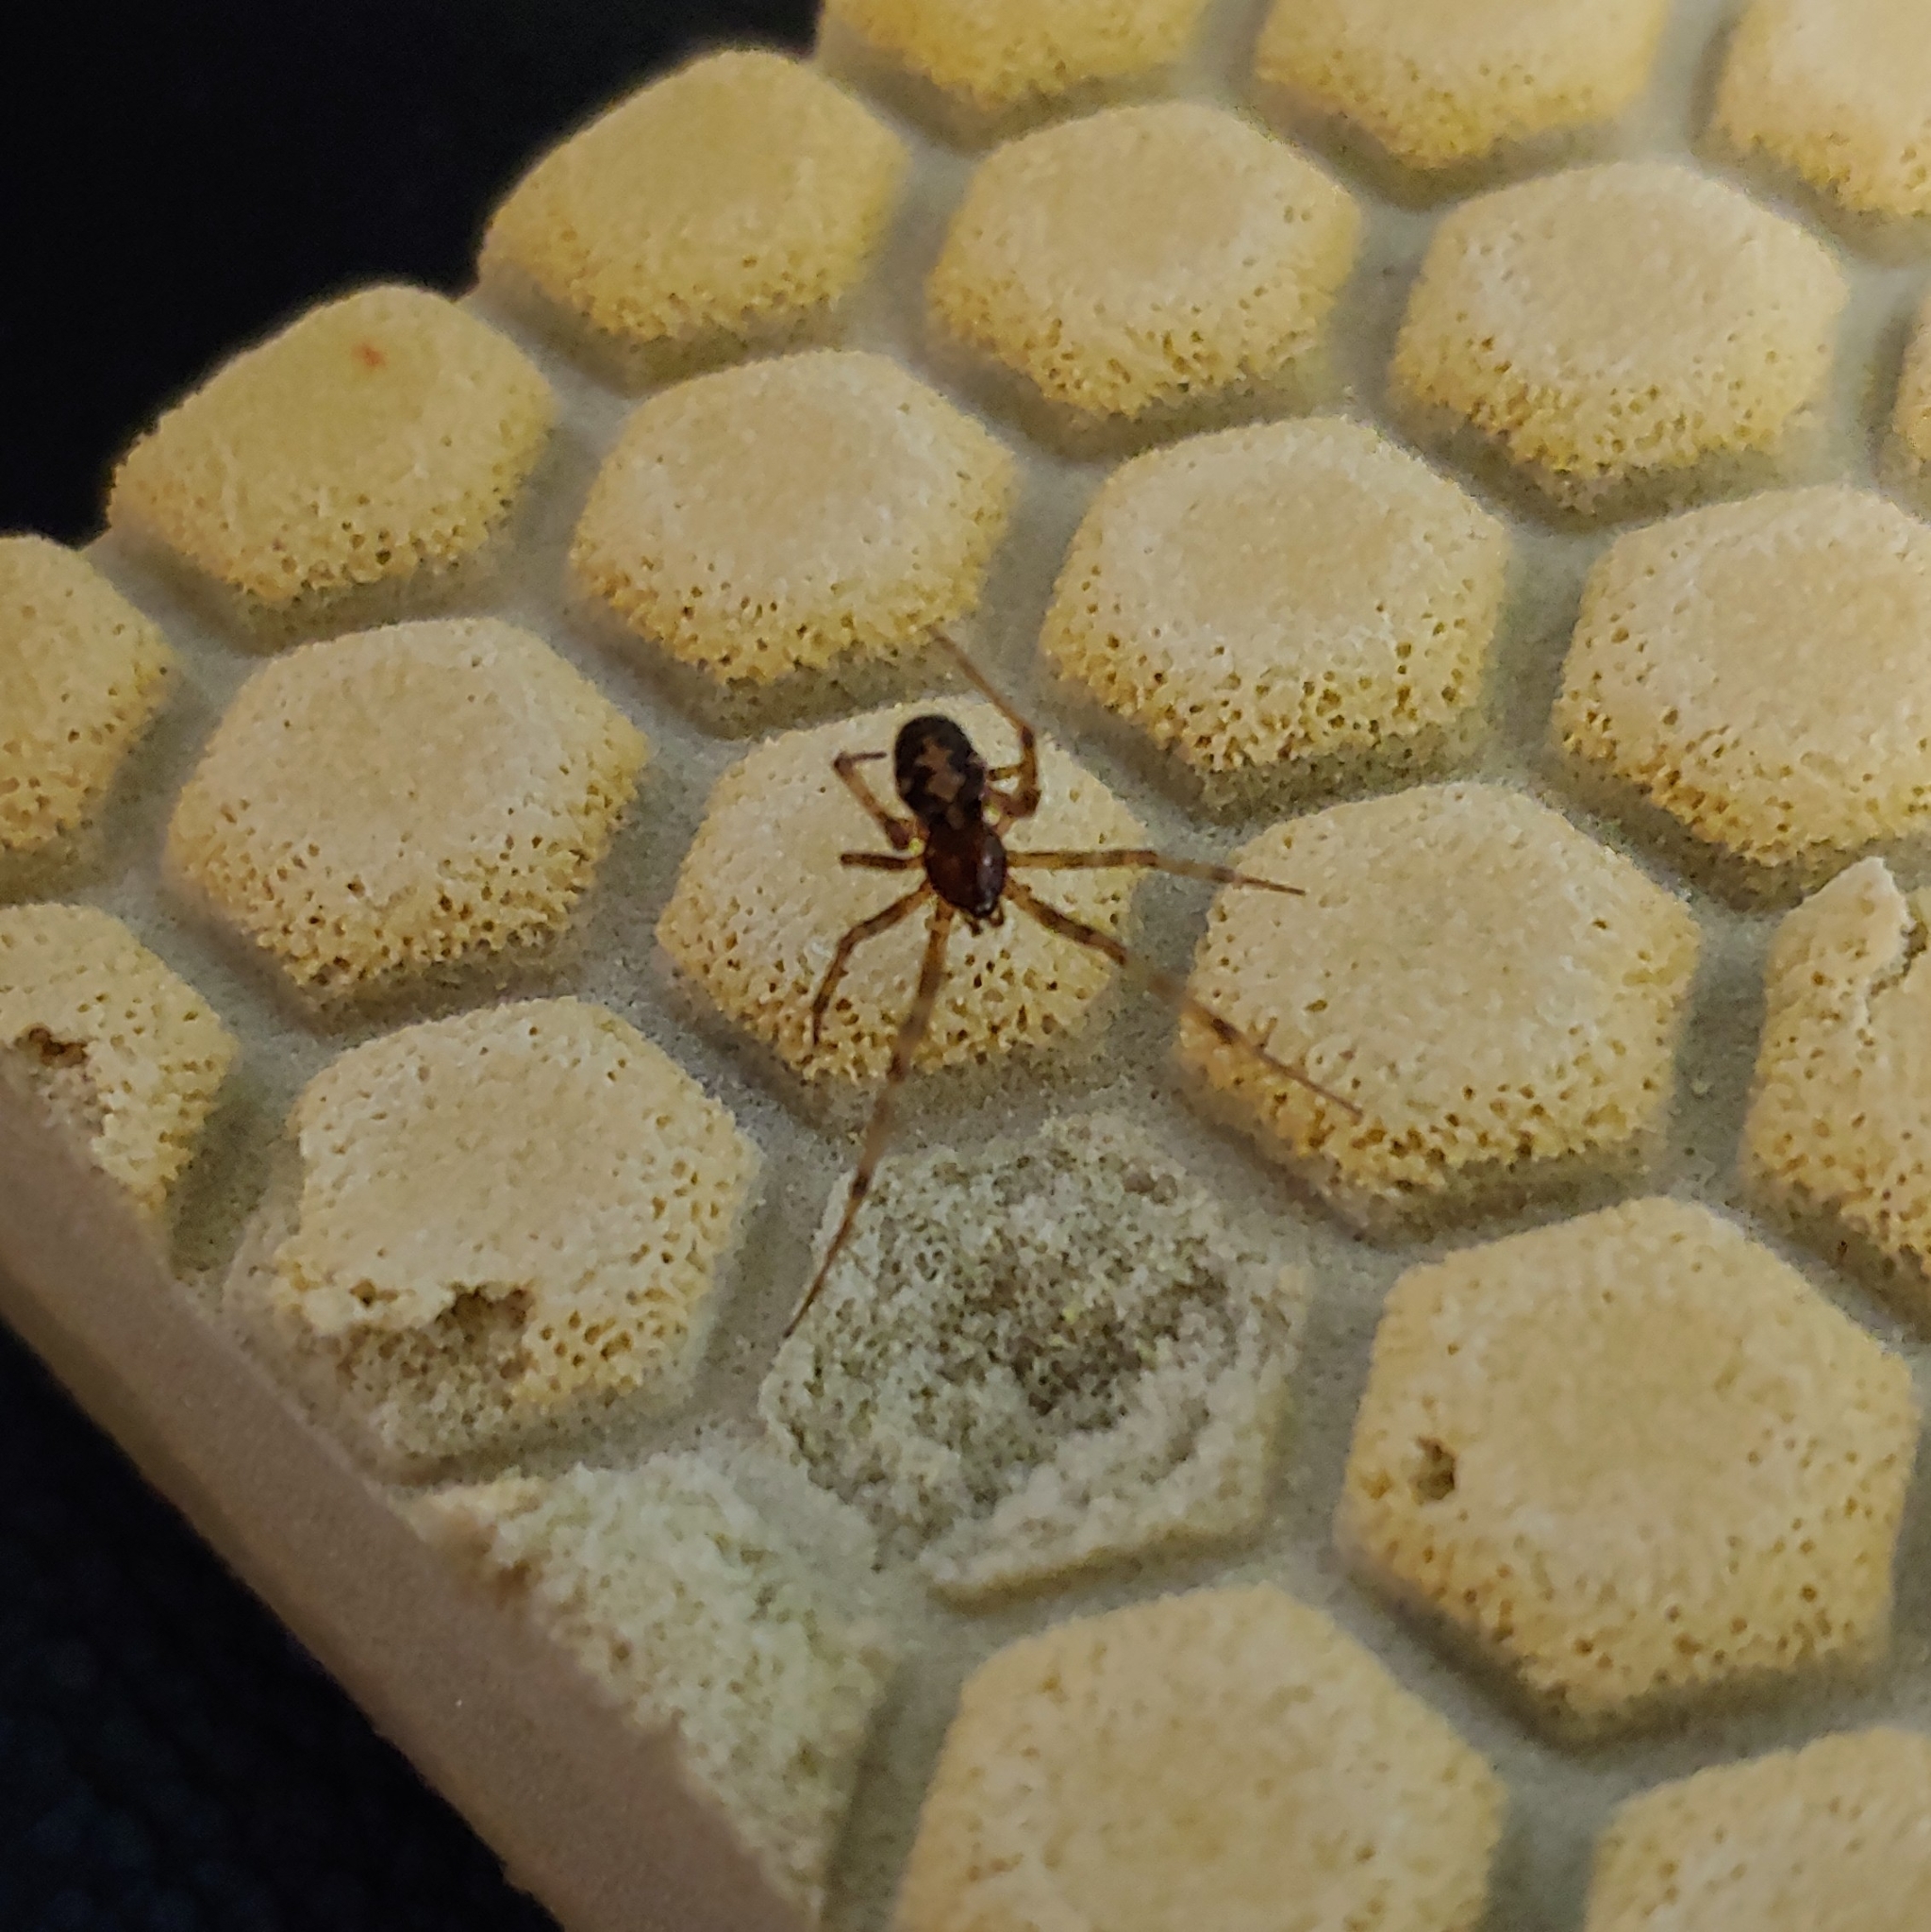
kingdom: Animalia
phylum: Arthropoda
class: Arachnida
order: Araneae
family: Theridiidae
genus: Steatoda
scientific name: Steatoda triangulosa
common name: Triangulate bud spider
